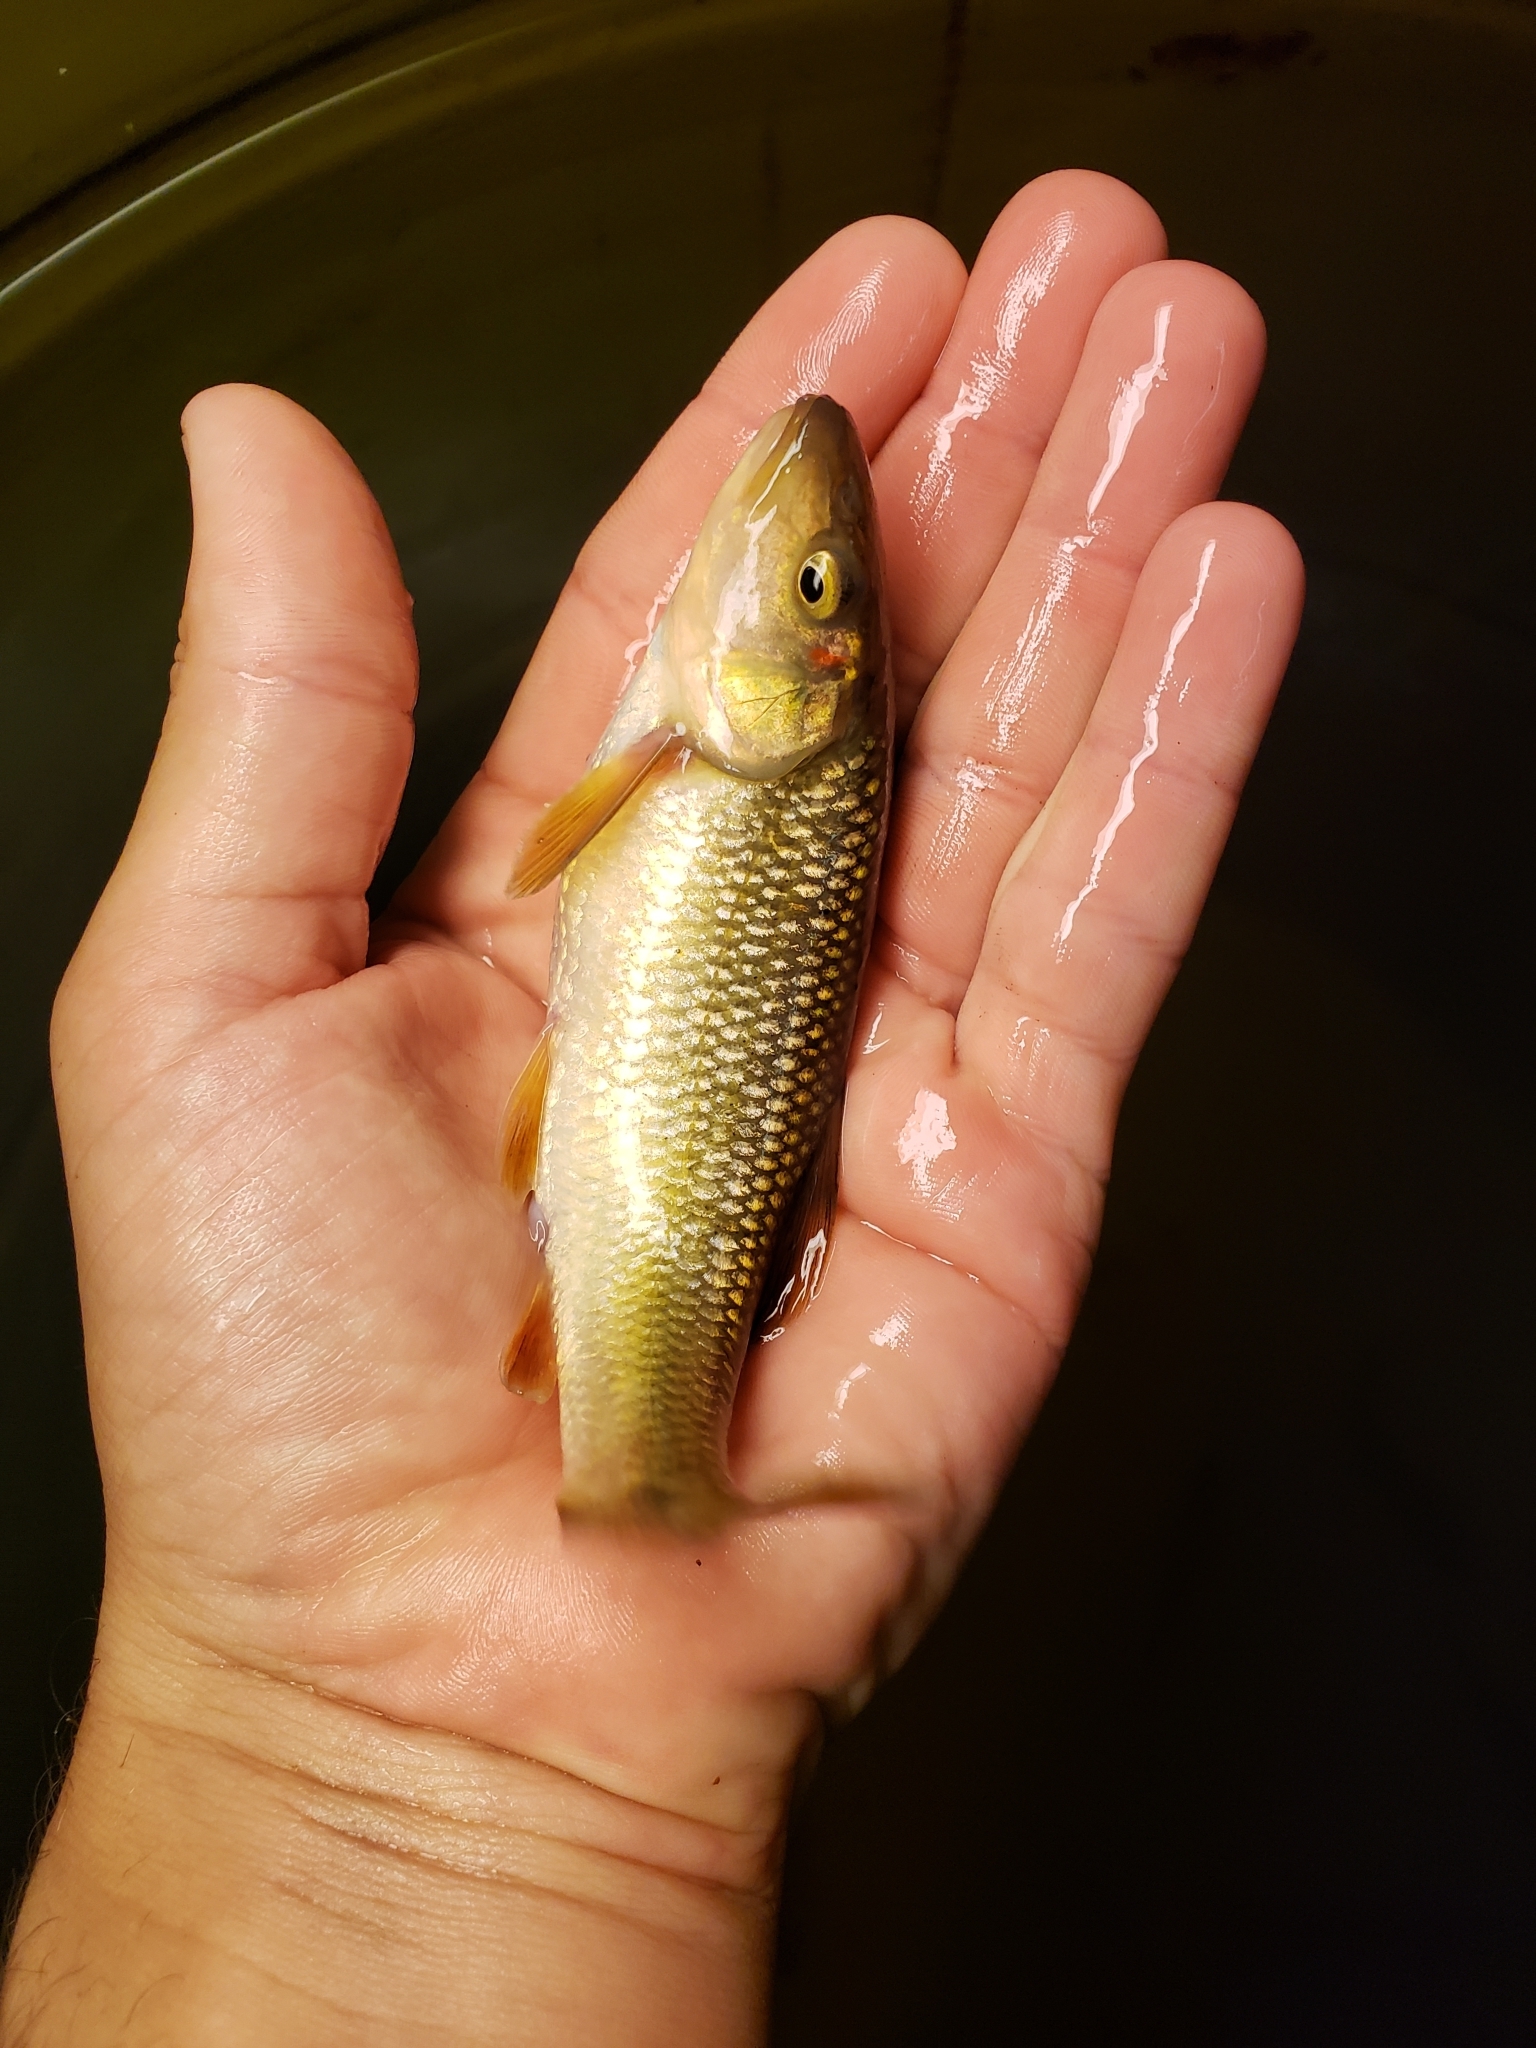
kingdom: Animalia
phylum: Chordata
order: Cypriniformes
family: Cyprinidae
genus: Nocomis
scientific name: Nocomis biguttatus
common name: Hornyhead chub
